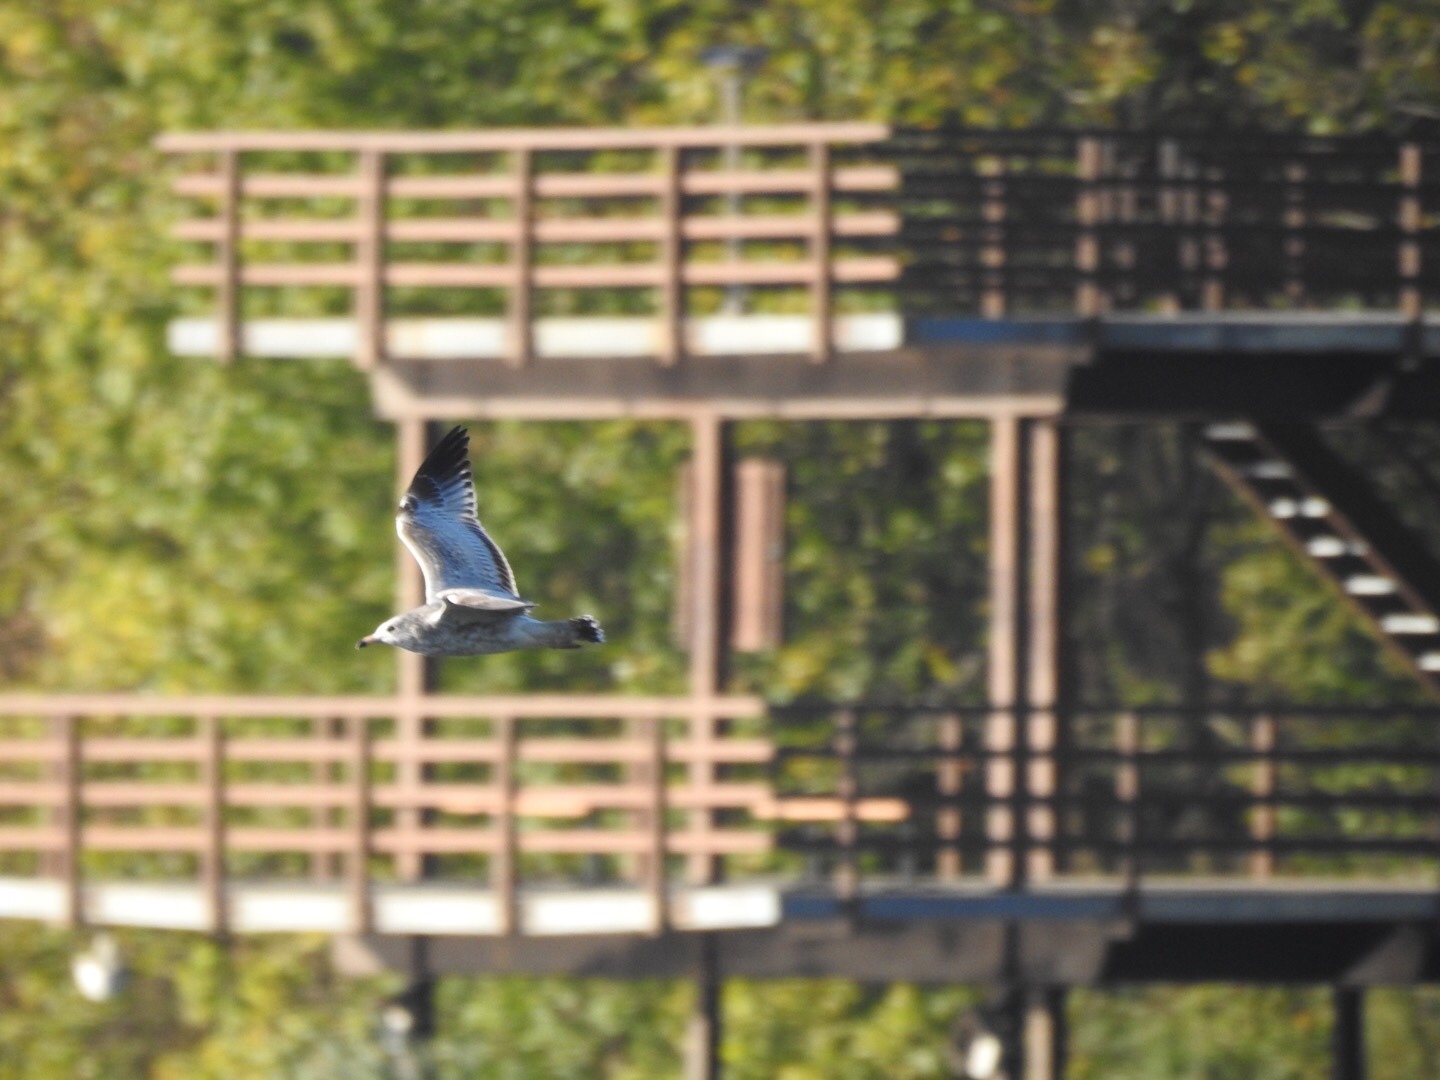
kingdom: Animalia
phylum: Chordata
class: Aves
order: Charadriiformes
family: Laridae
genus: Larus
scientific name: Larus delawarensis
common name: Ring-billed gull
